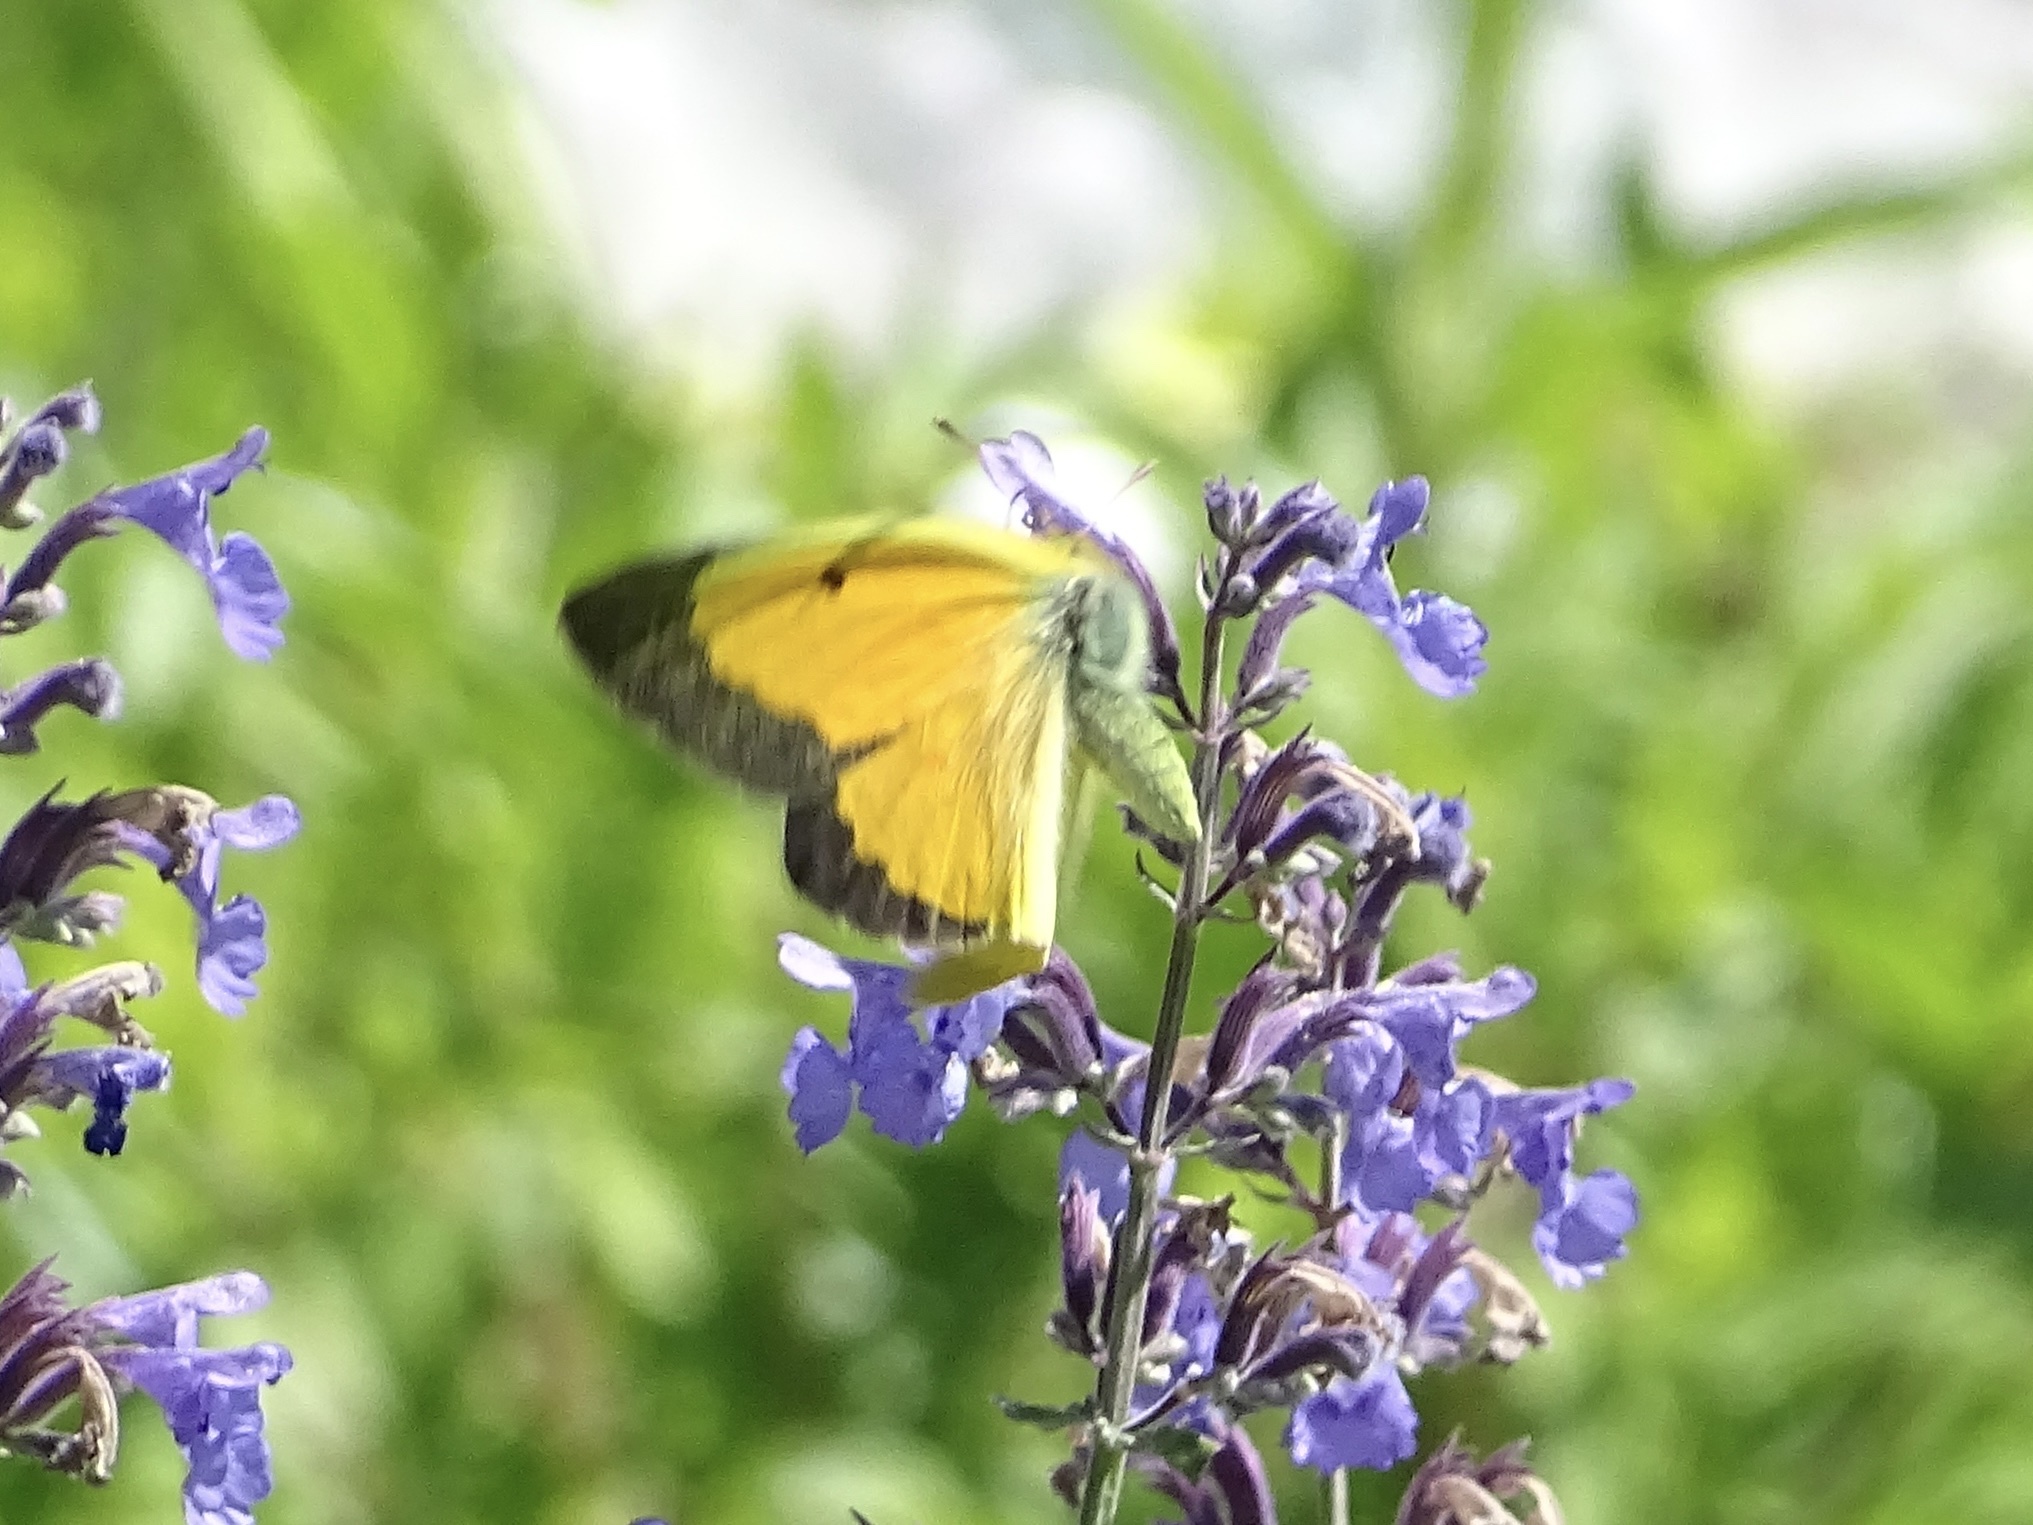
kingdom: Animalia
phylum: Arthropoda
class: Insecta
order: Lepidoptera
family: Pieridae
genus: Colias
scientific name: Colias eurytheme
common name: Alfalfa butterfly
